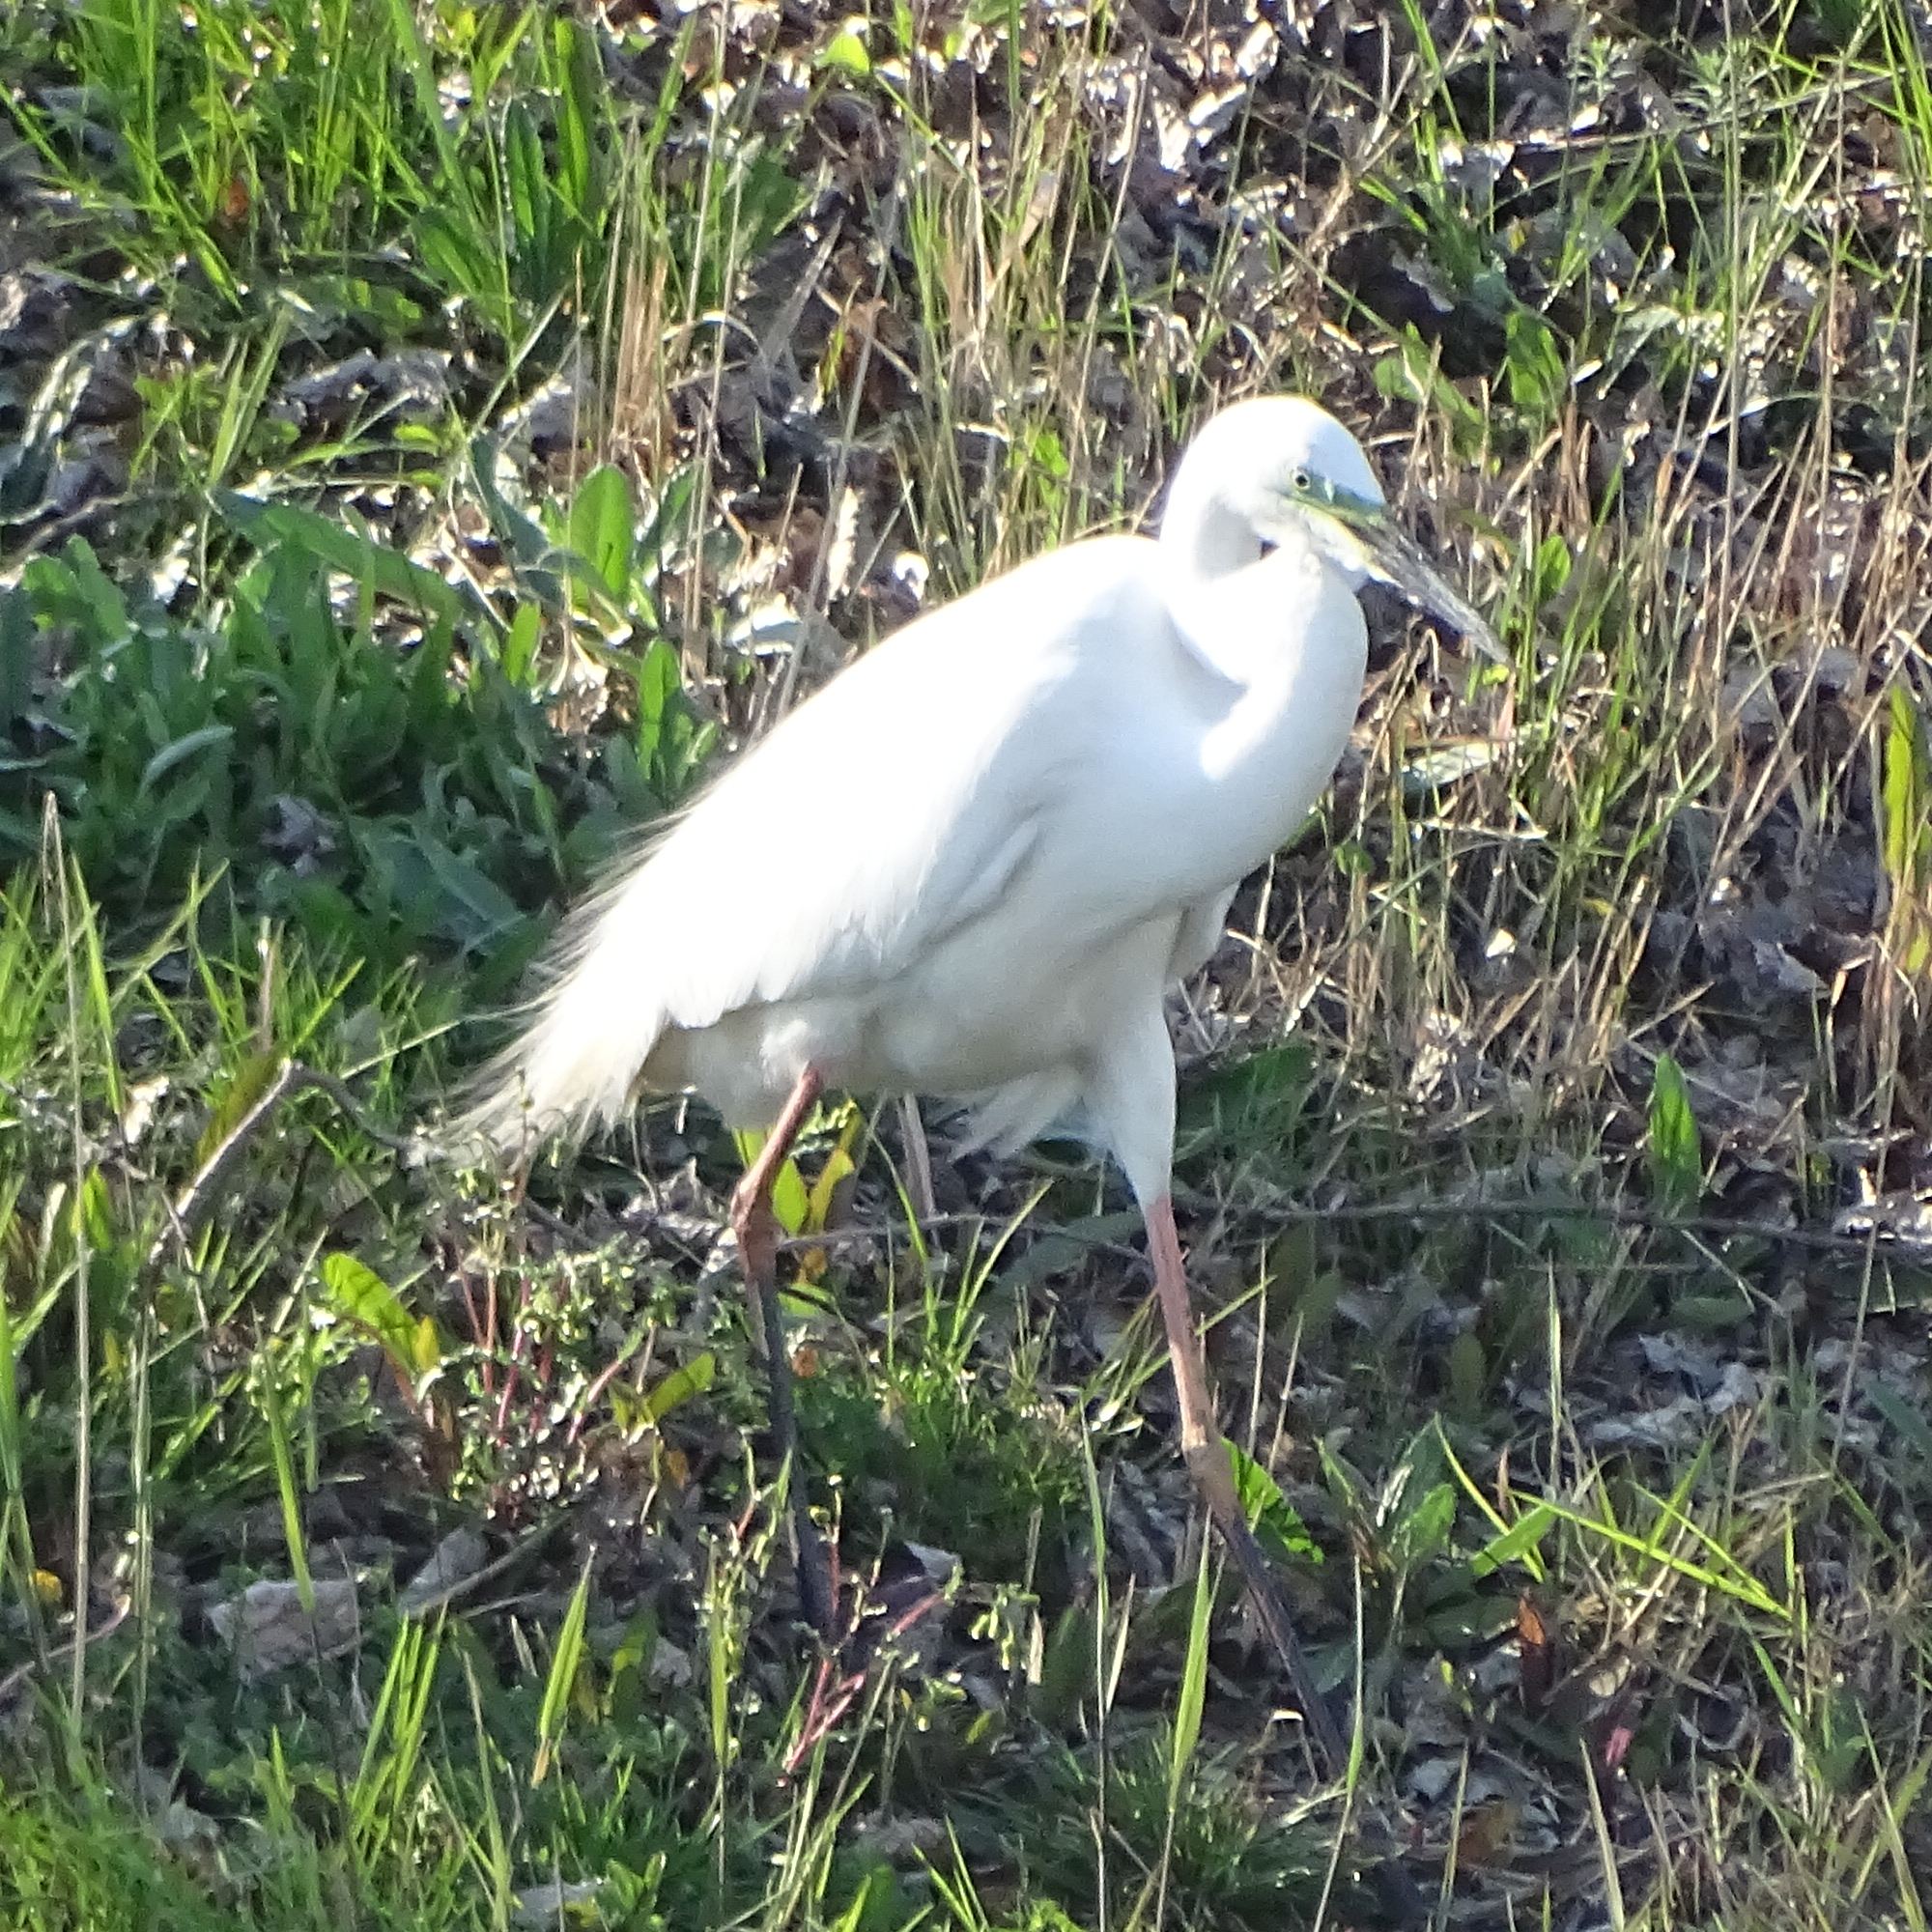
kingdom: Animalia
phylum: Chordata
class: Aves
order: Pelecaniformes
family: Ardeidae
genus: Ardea
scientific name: Ardea alba
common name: Great egret
